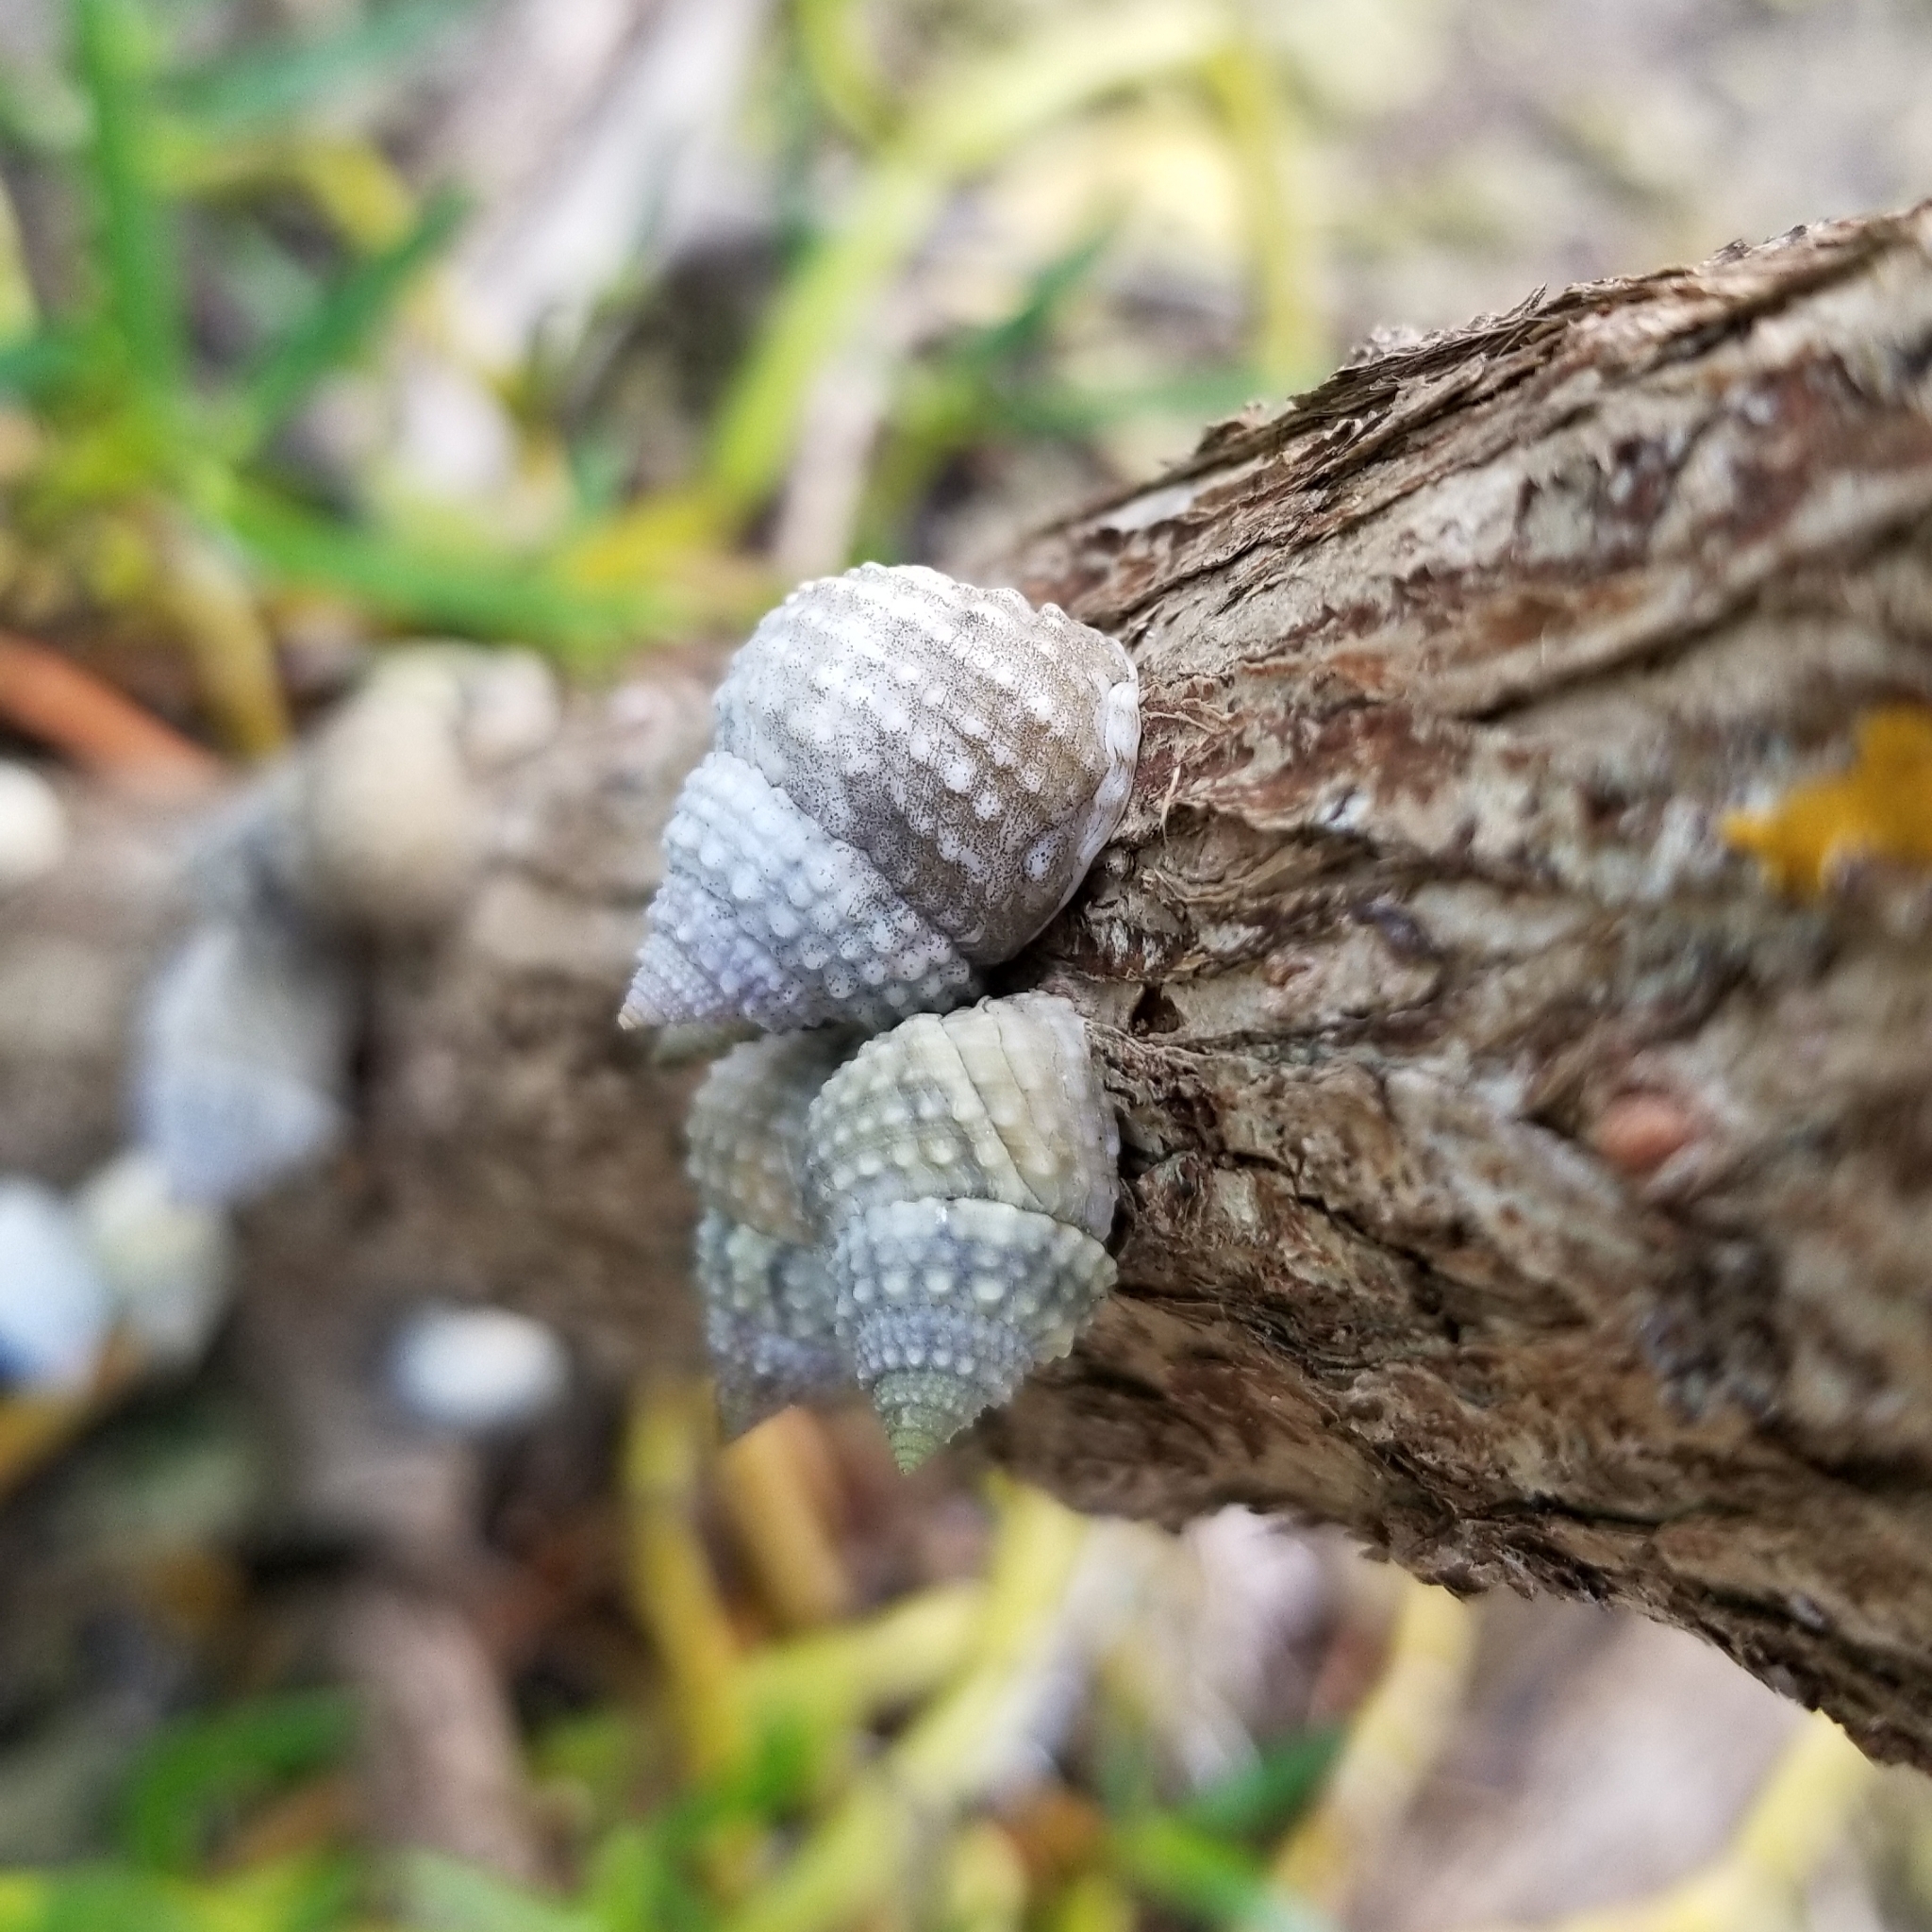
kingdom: Animalia
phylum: Mollusca
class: Gastropoda
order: Littorinimorpha
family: Littorinidae
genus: Cenchritis
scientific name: Cenchritis muricatus
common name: Beaded periwinkle
